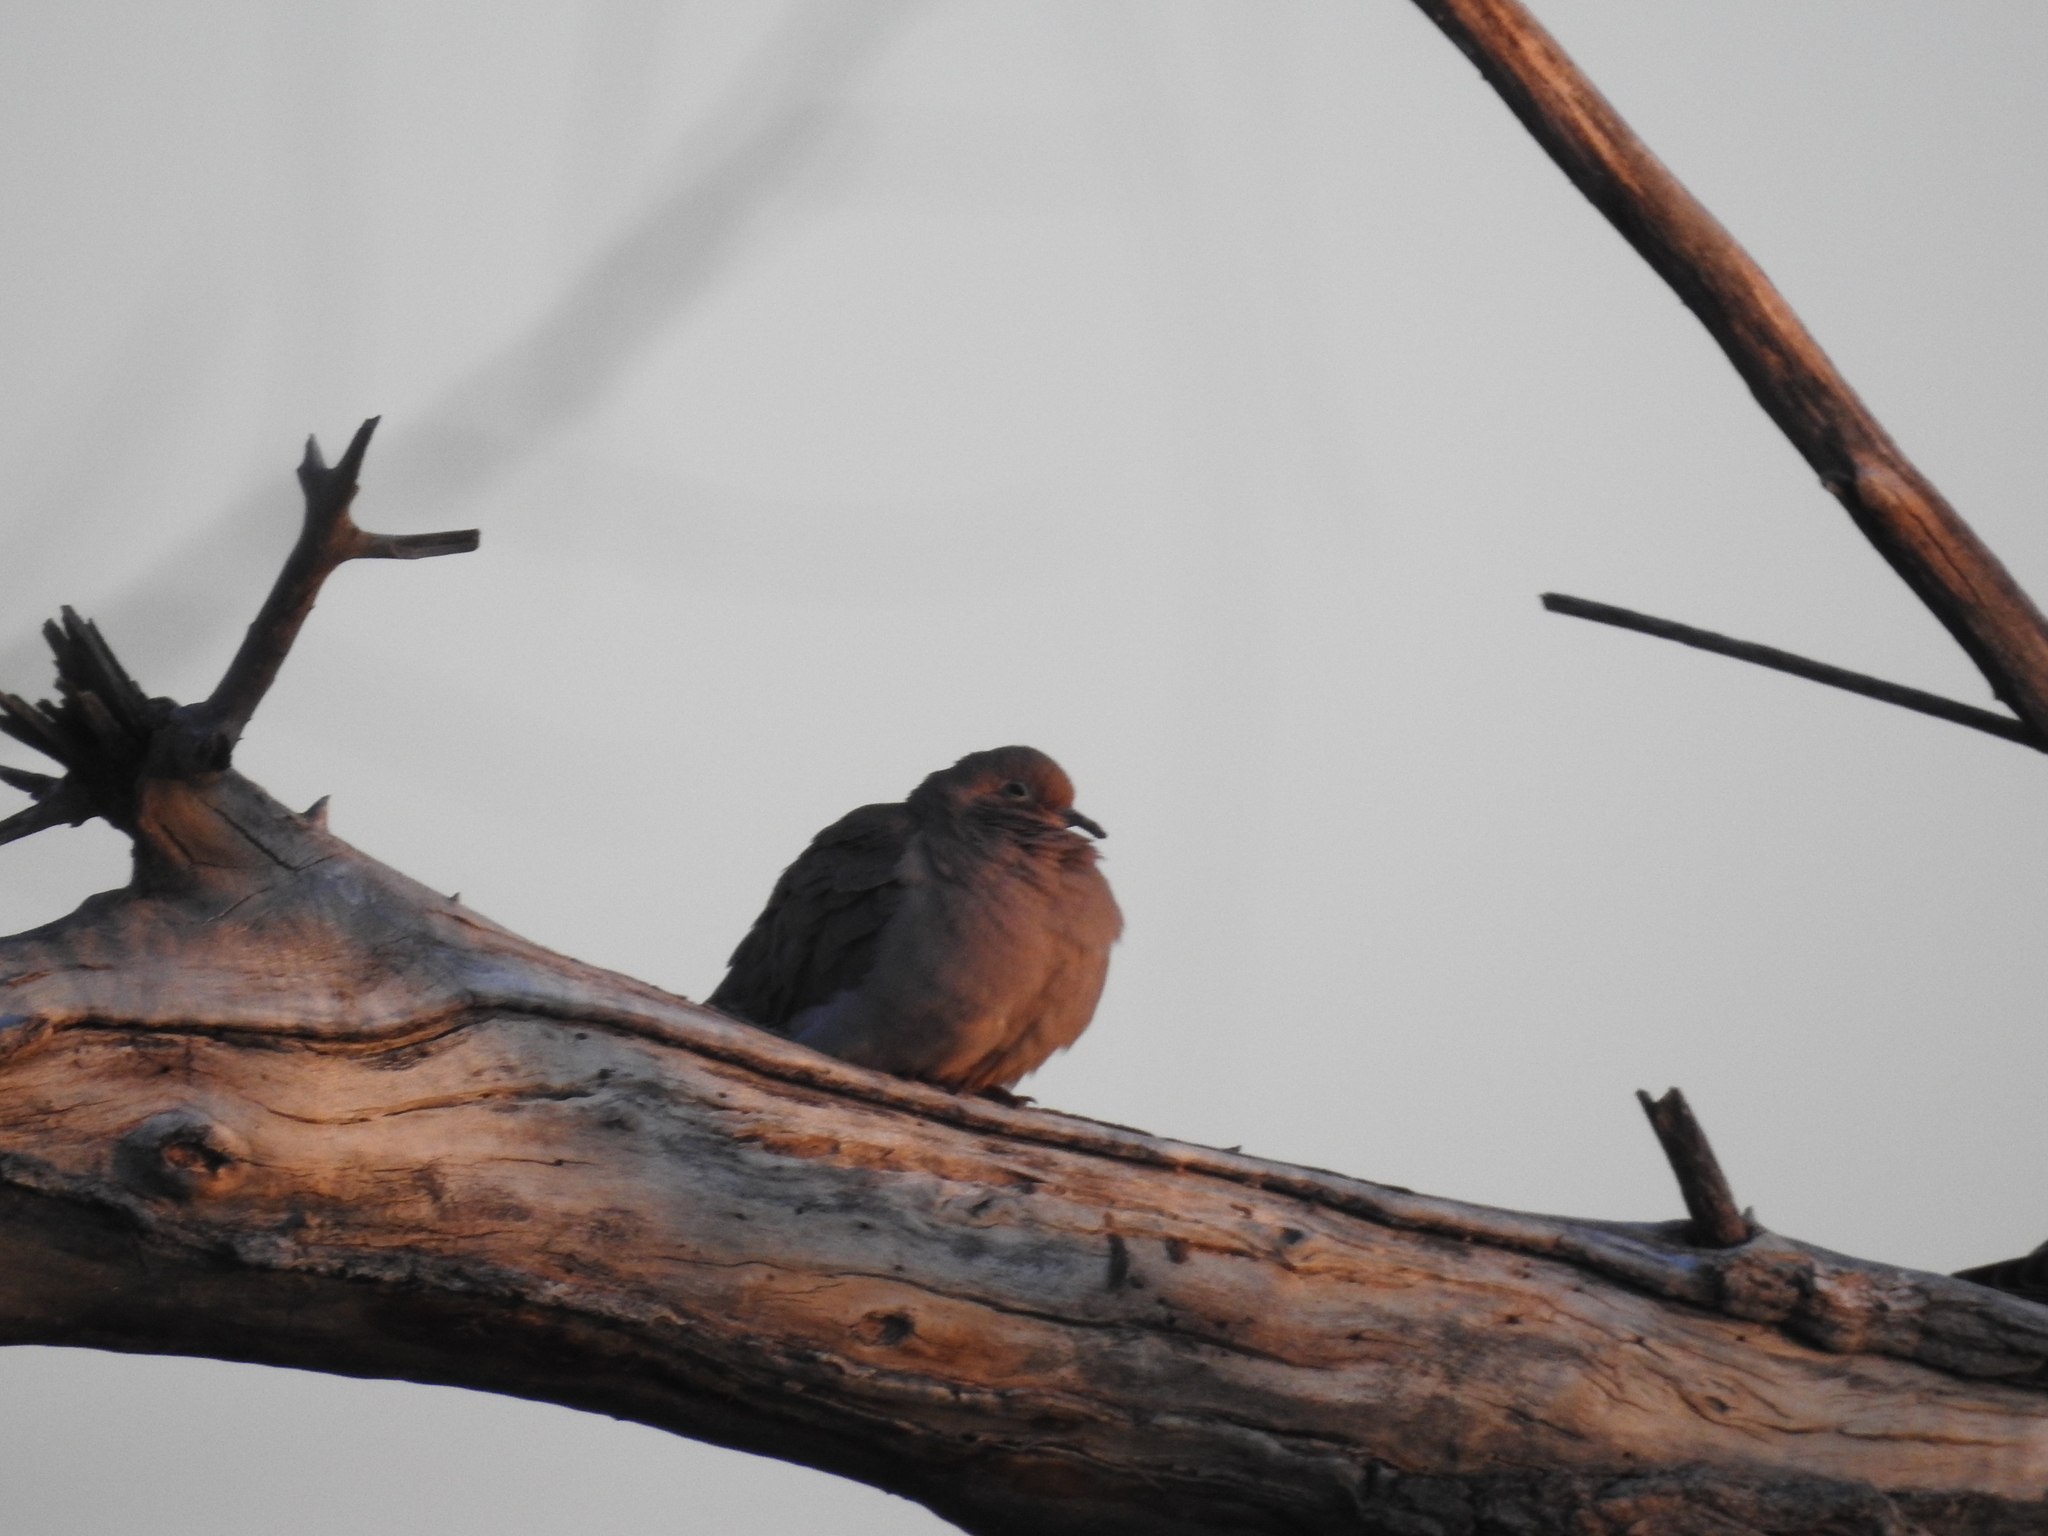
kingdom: Animalia
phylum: Chordata
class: Aves
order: Columbiformes
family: Columbidae
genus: Zenaida
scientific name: Zenaida macroura
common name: Mourning dove
